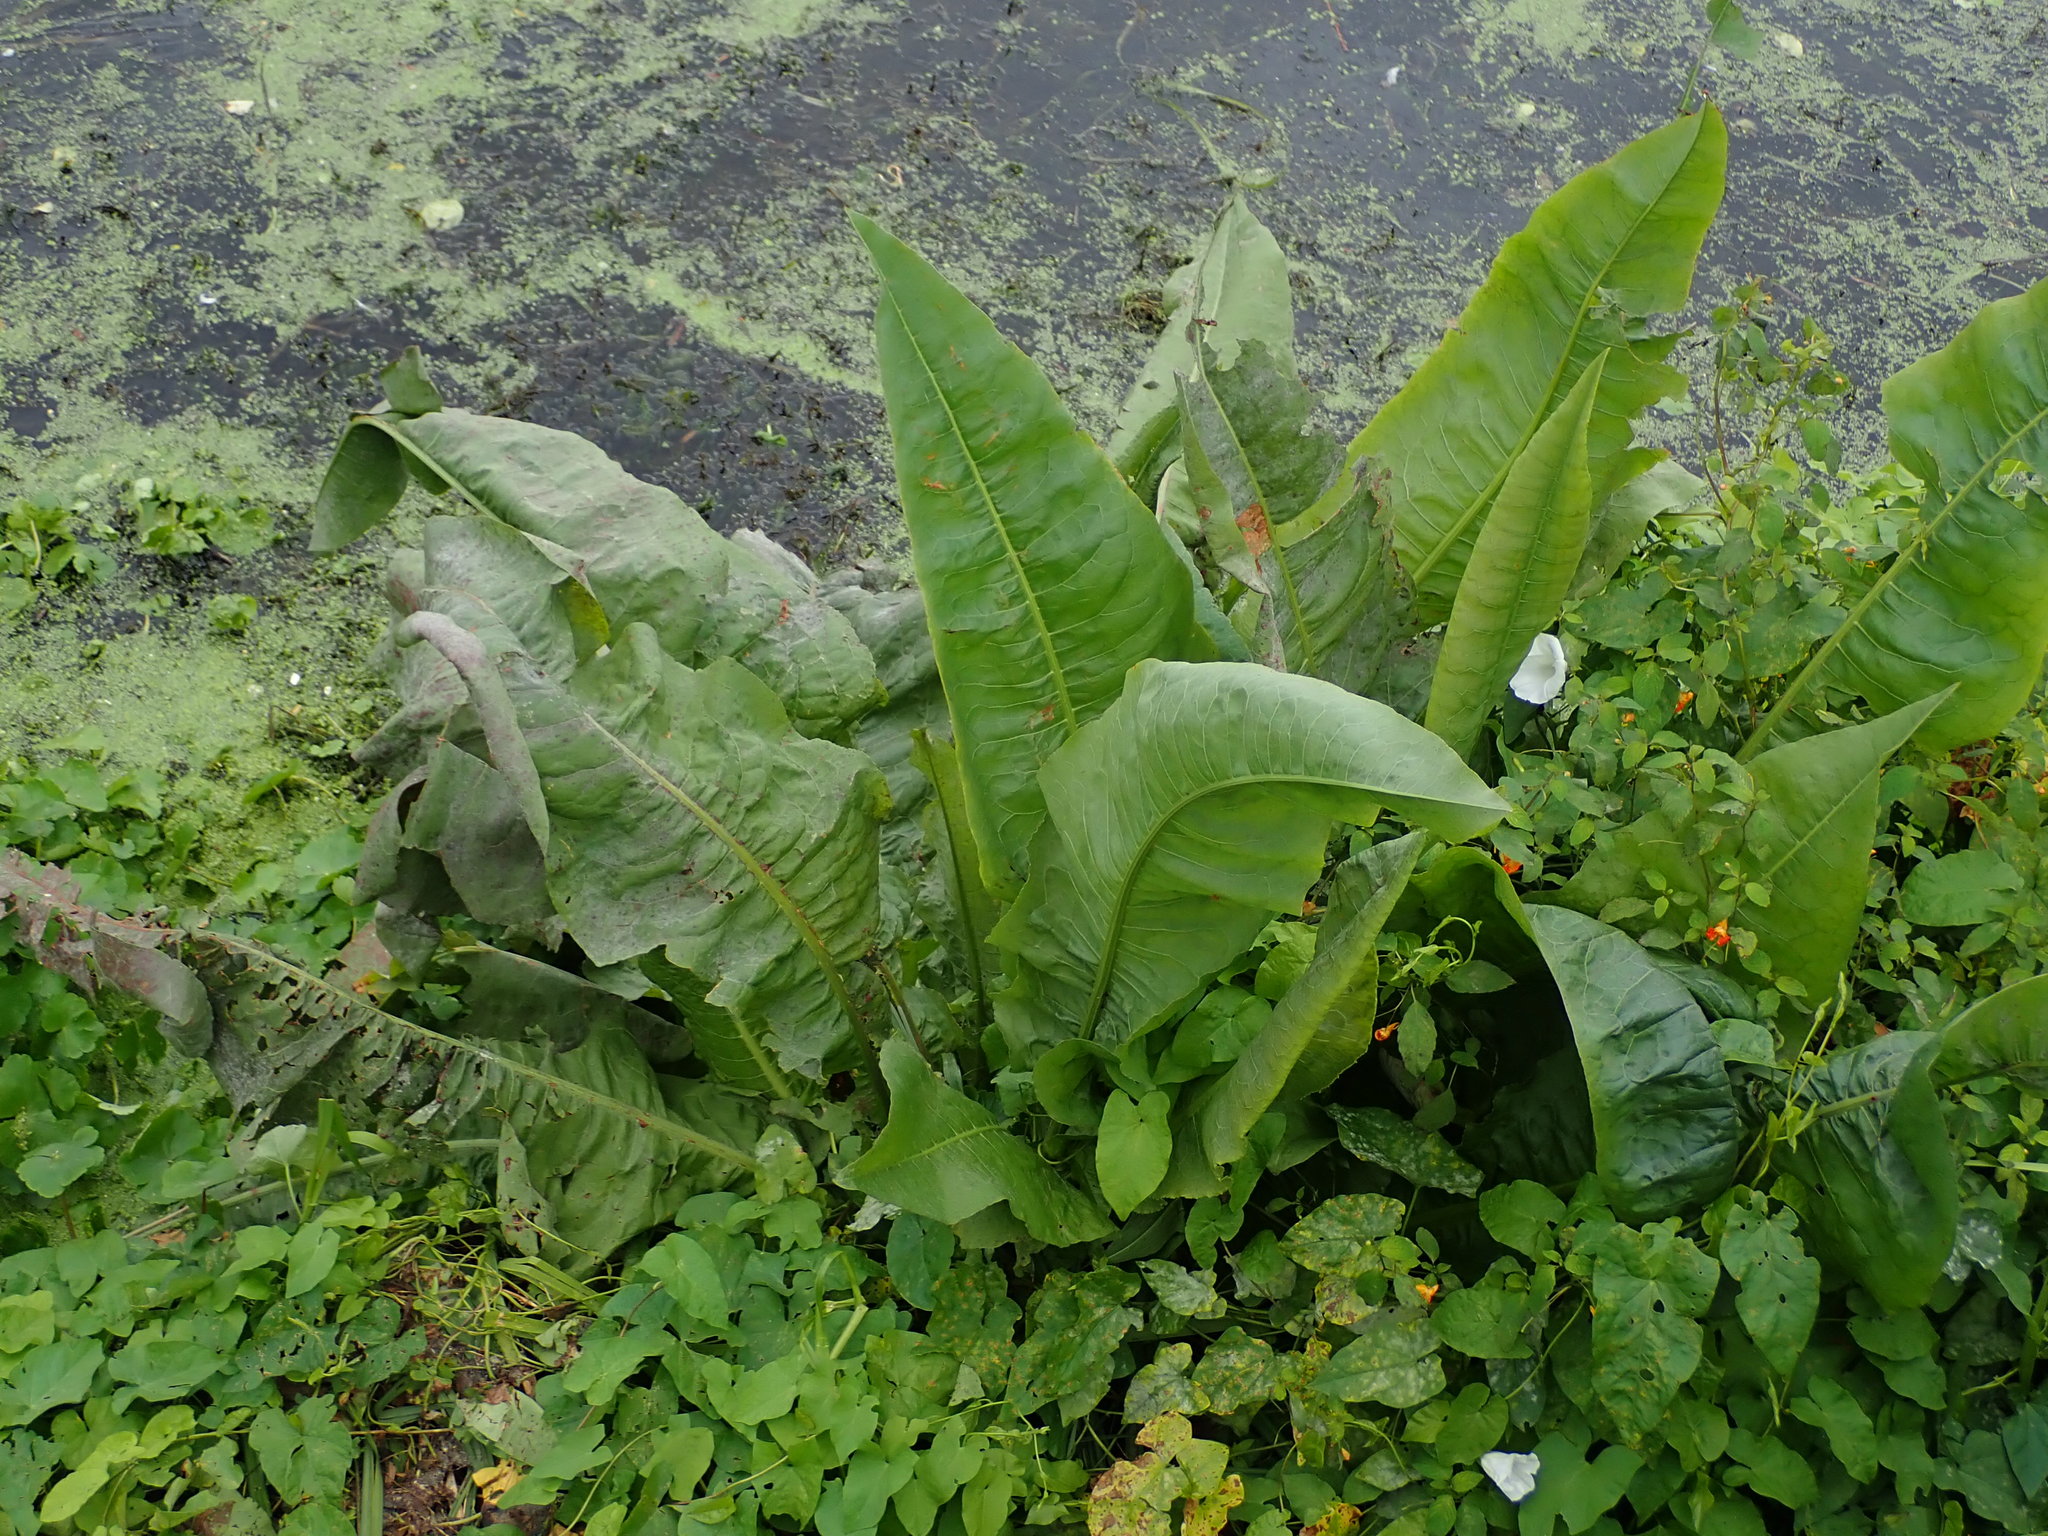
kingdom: Plantae
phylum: Tracheophyta
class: Magnoliopsida
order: Caryophyllales
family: Polygonaceae
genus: Rumex
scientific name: Rumex hydrolapathum
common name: Water dock
